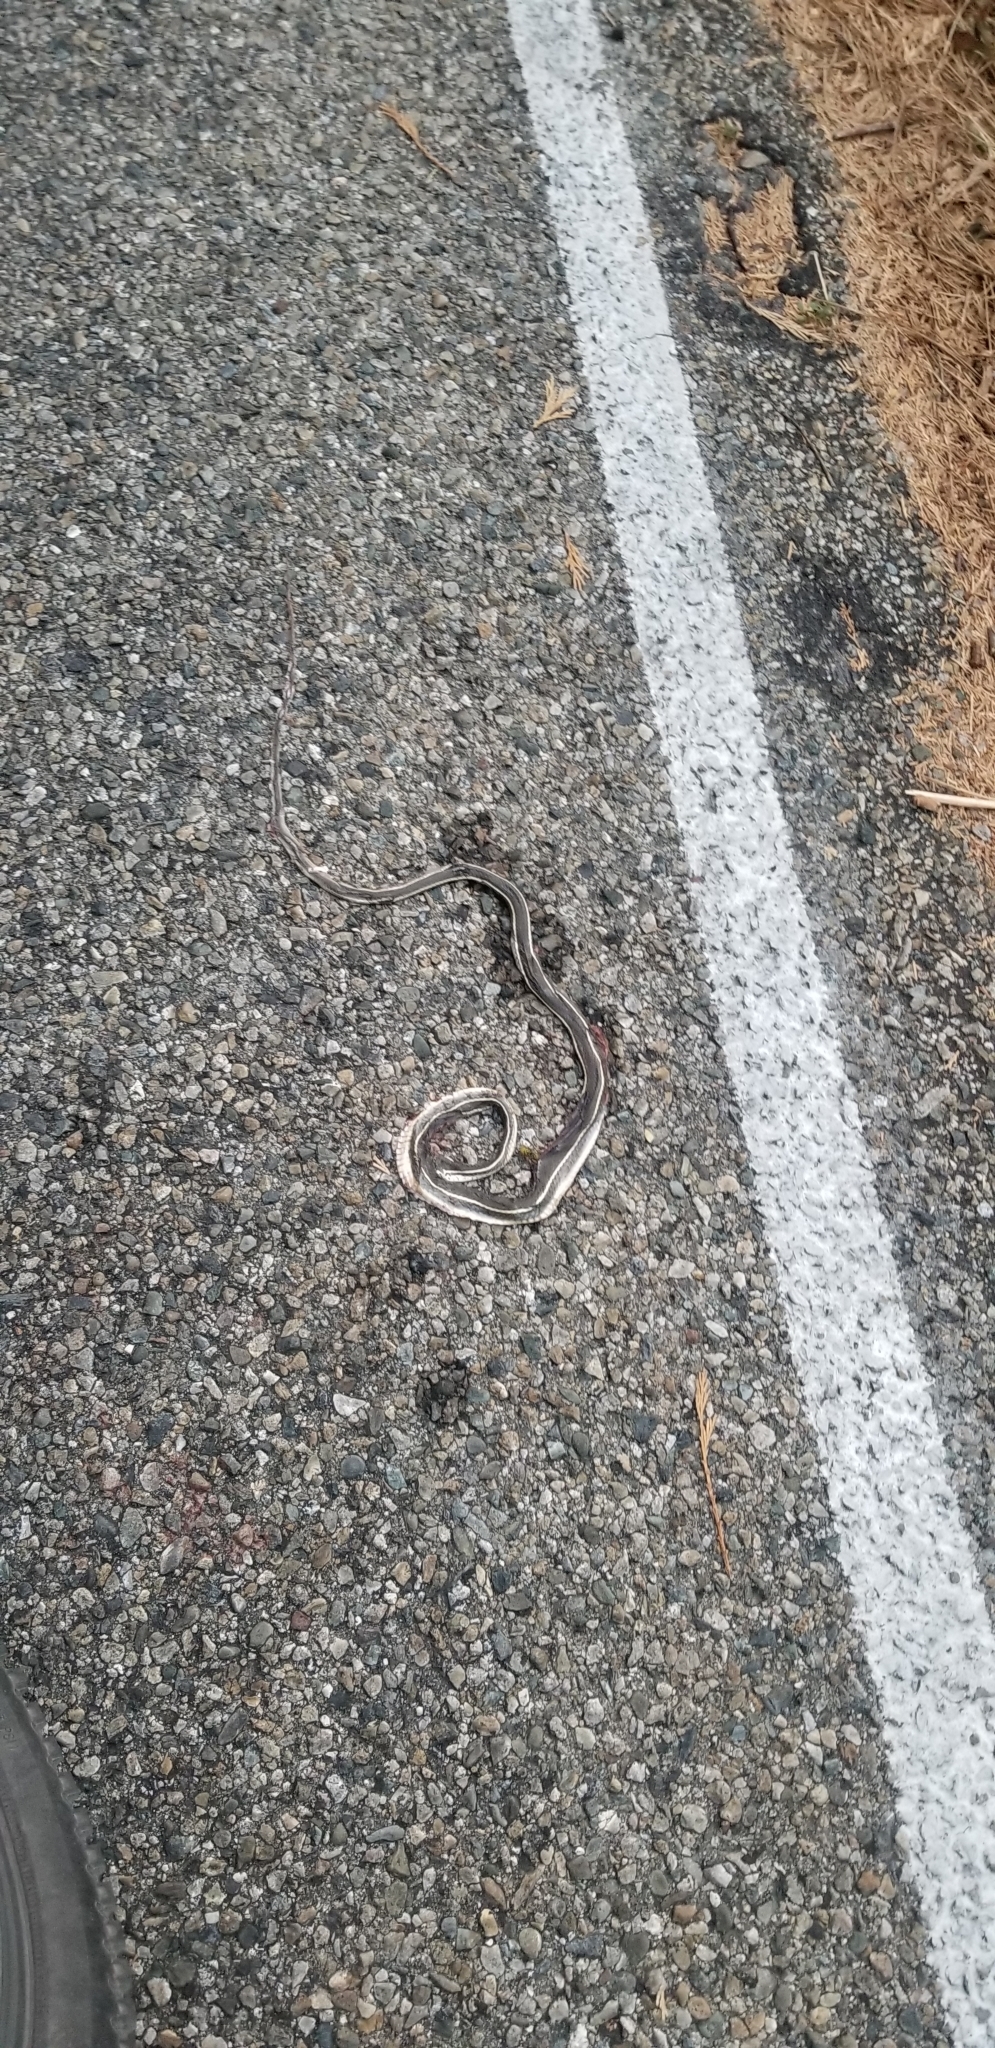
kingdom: Animalia
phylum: Chordata
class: Squamata
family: Colubridae
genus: Masticophis
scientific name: Masticophis lateralis
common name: Striped racer
